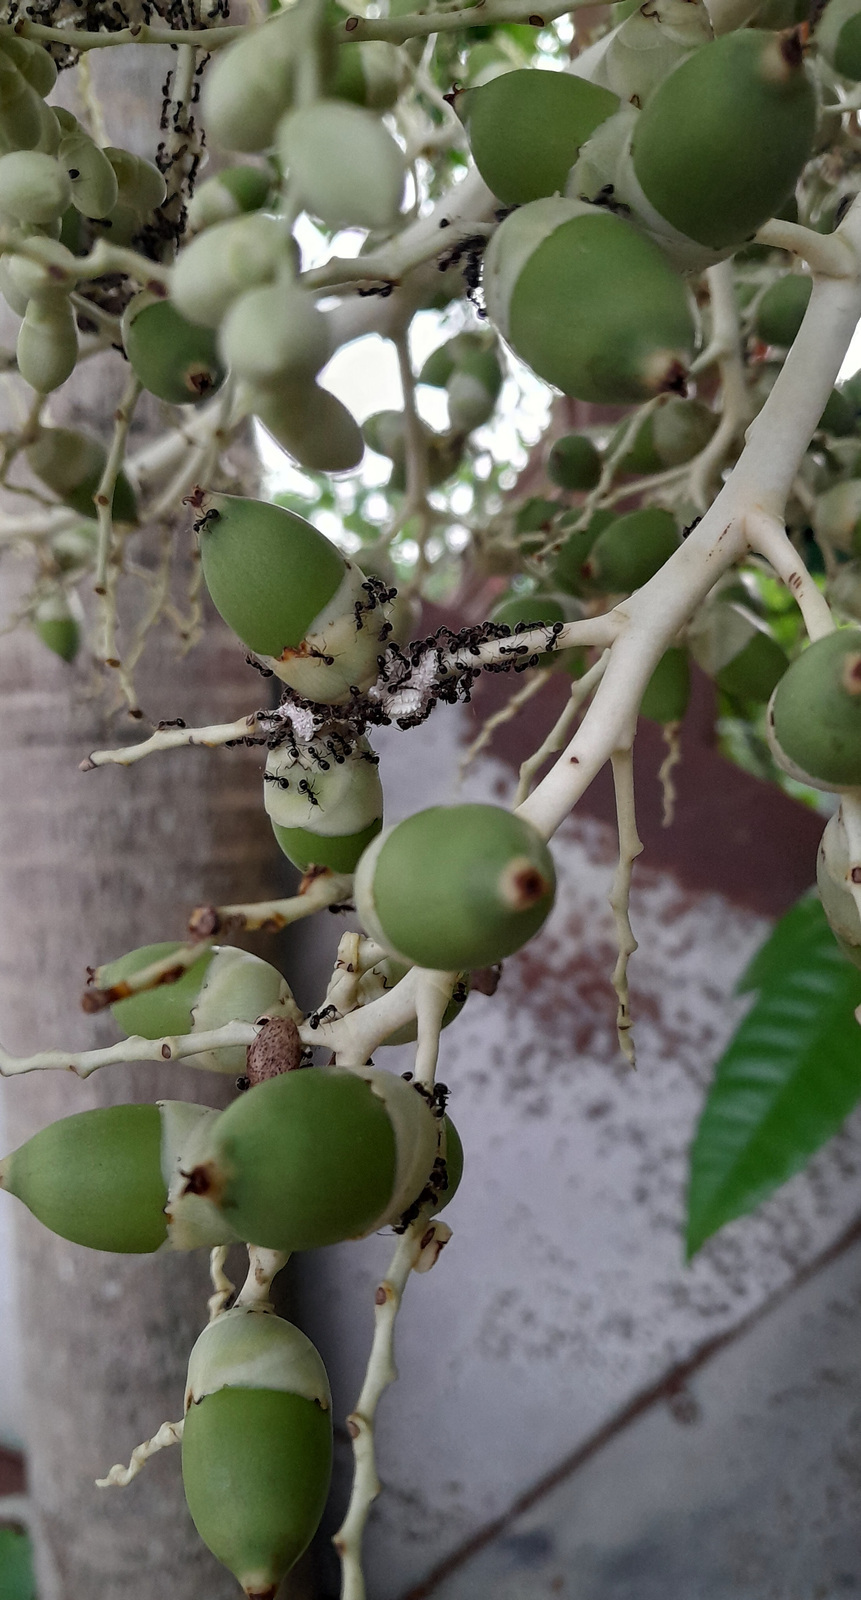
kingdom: Animalia
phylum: Arthropoda
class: Insecta
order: Hymenoptera
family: Formicidae
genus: Dolichoderus
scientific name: Dolichoderus thoracicus
